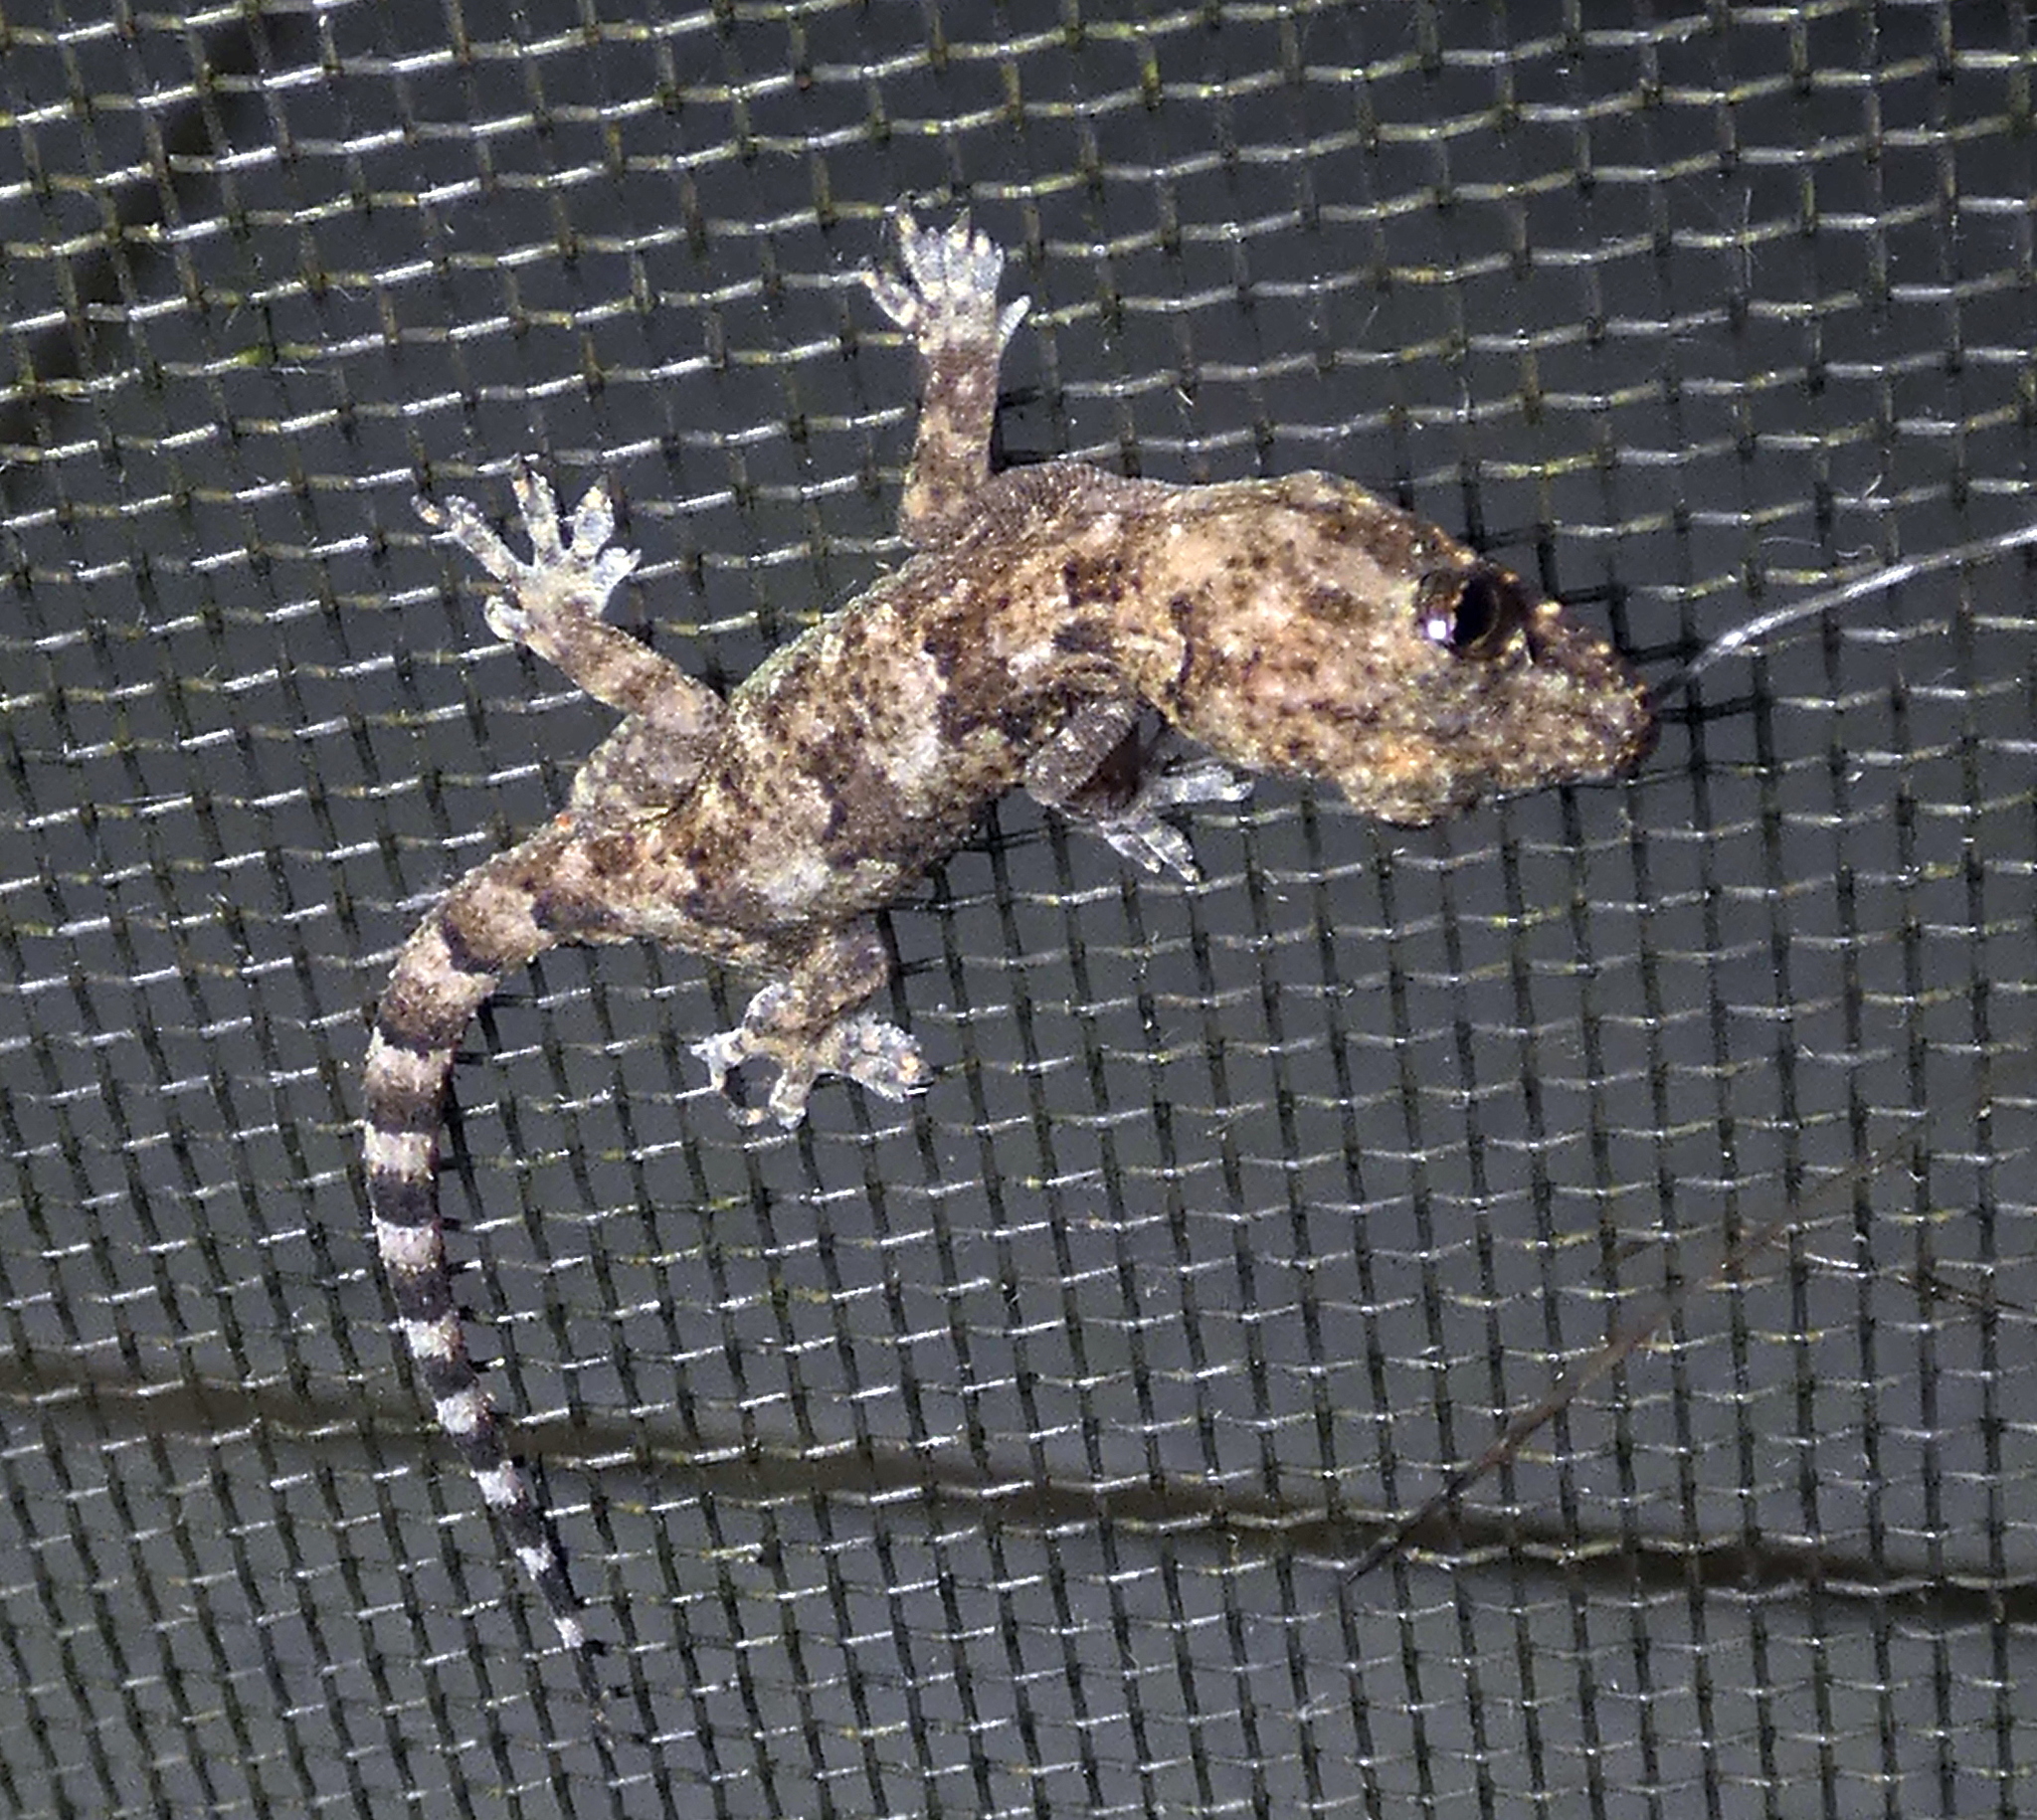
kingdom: Animalia
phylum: Chordata
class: Squamata
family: Gekkonidae
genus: Hemidactylus
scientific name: Hemidactylus mabouia
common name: House gecko
